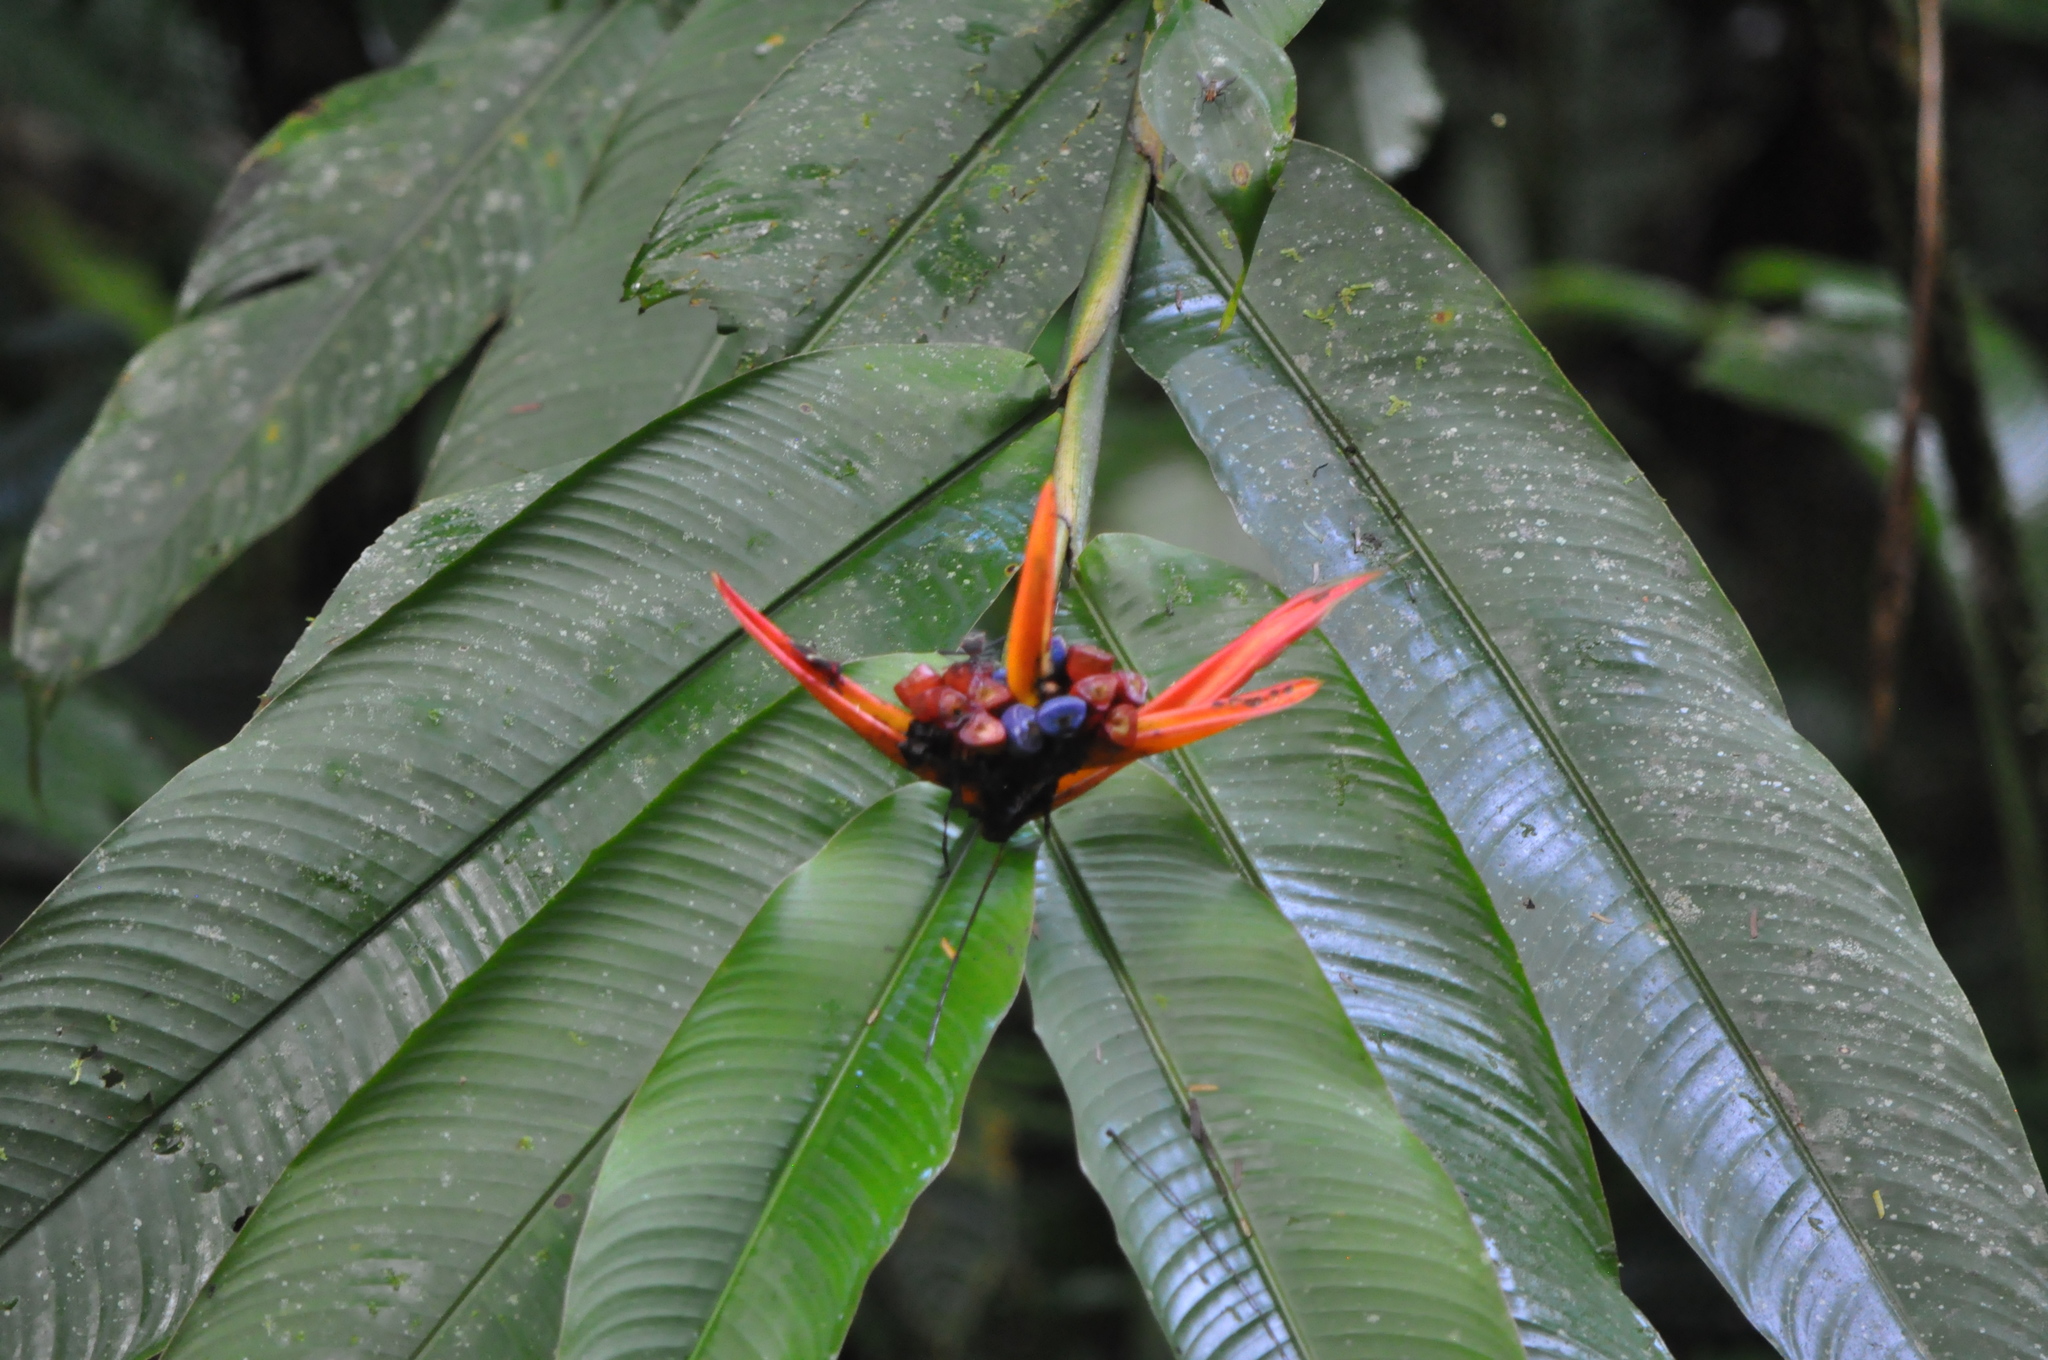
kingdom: Plantae
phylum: Tracheophyta
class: Liliopsida
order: Zingiberales
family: Heliconiaceae
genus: Heliconia
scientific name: Heliconia mathiasiae
